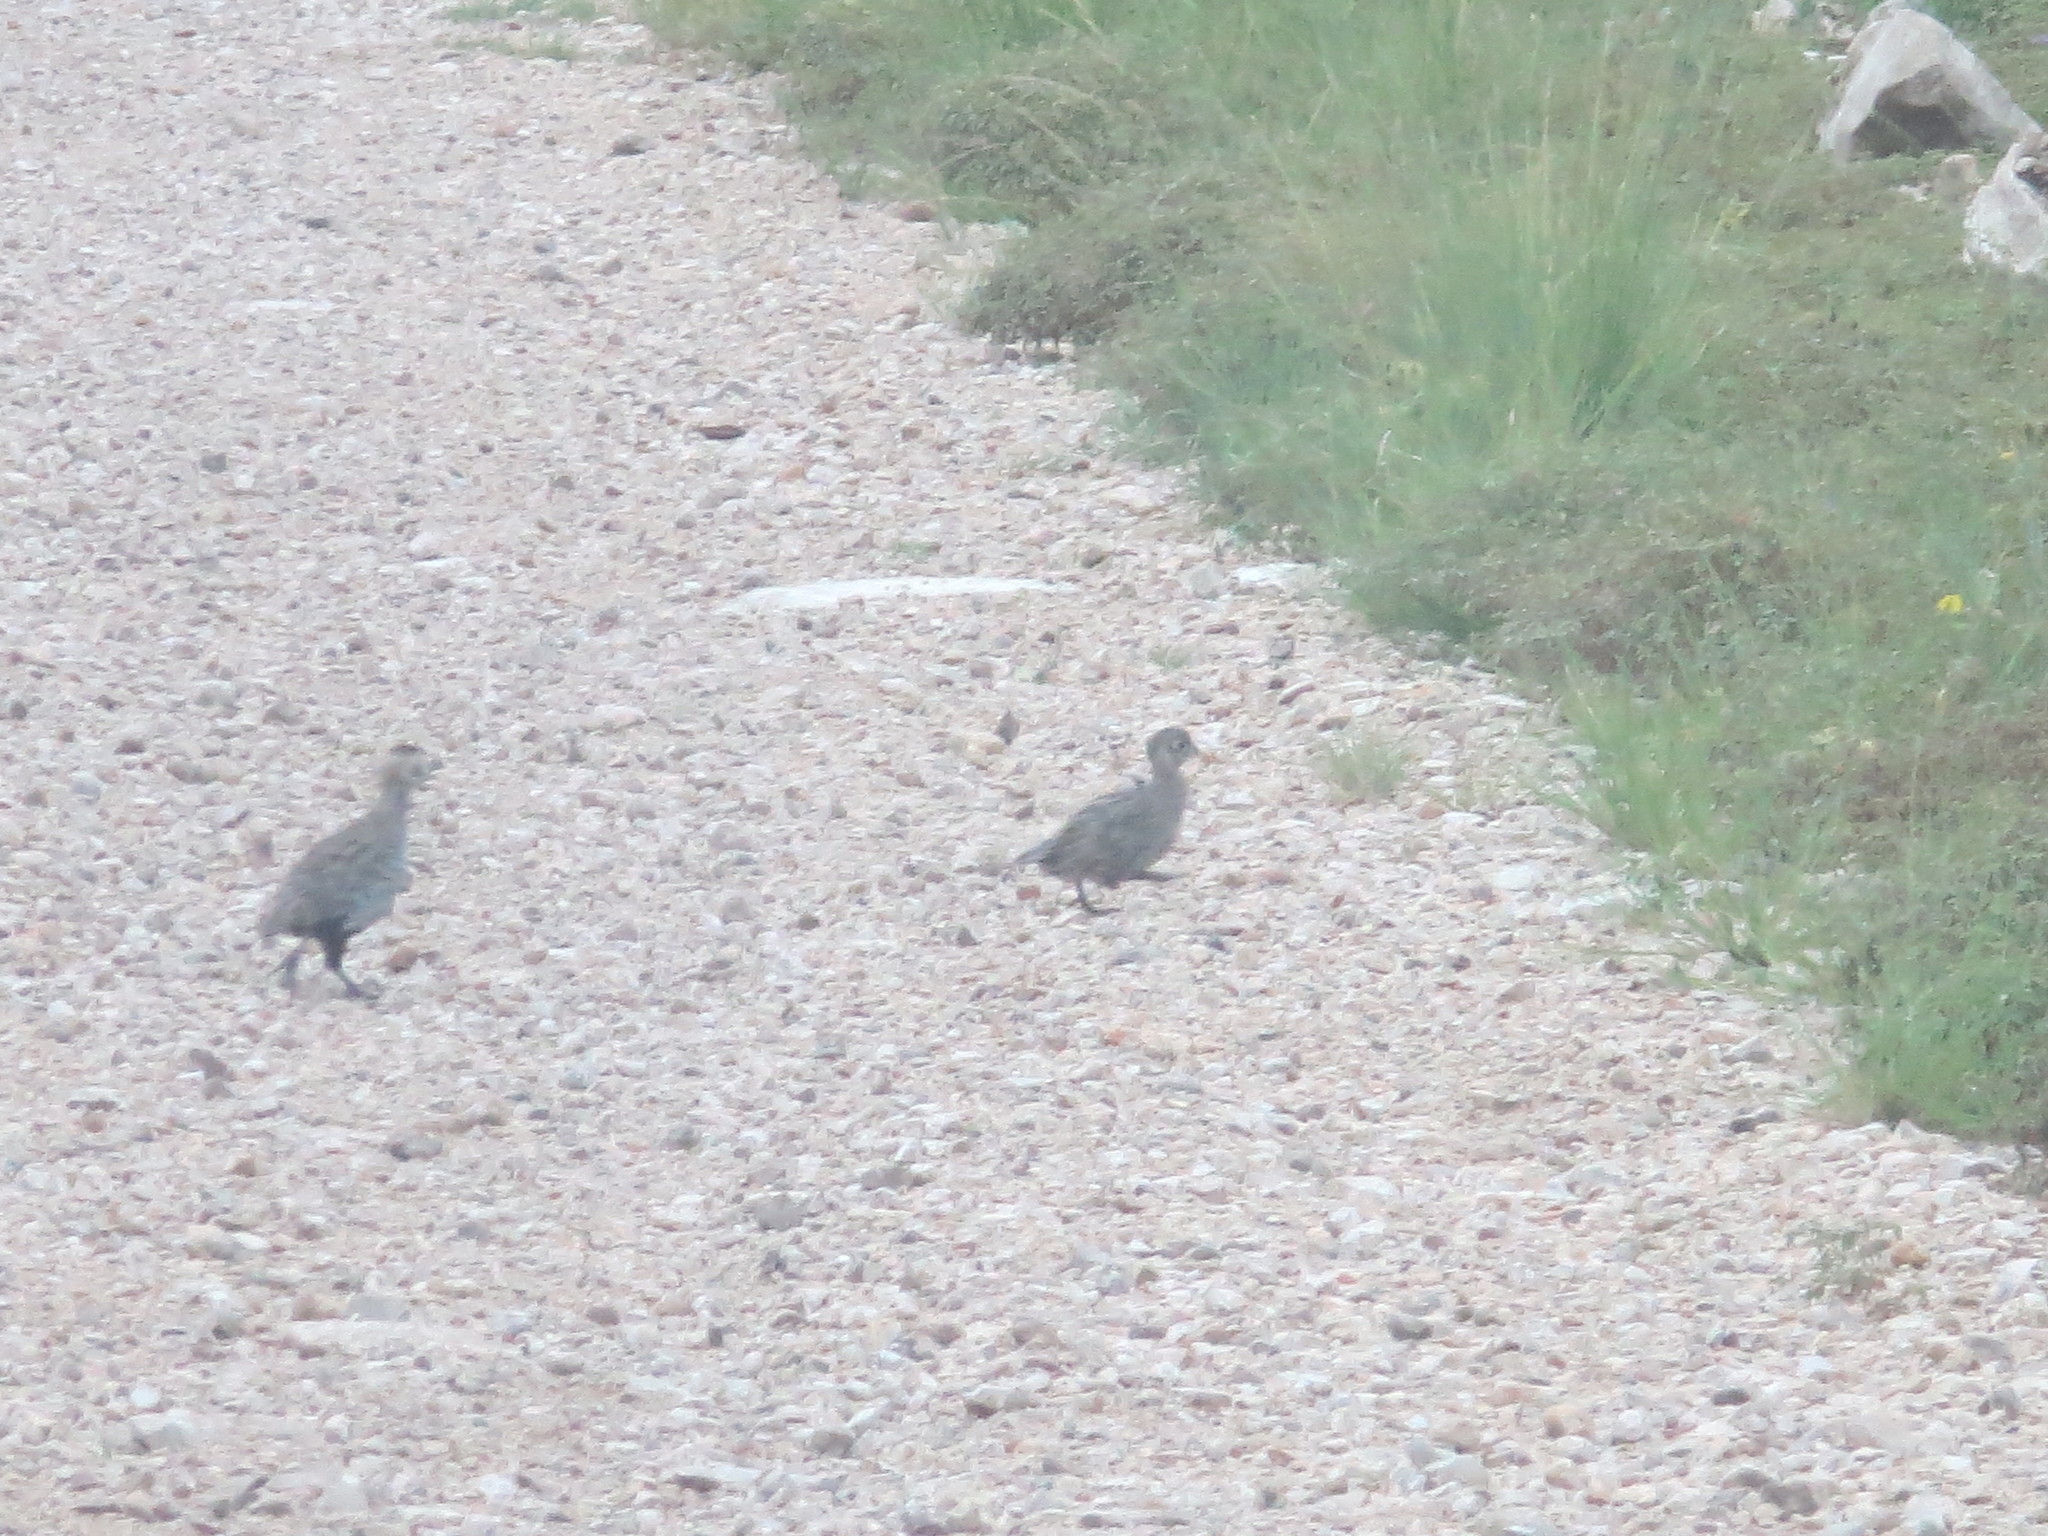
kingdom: Animalia
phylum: Chordata
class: Aves
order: Galliformes
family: Odontophoridae
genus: Cyrtonyx
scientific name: Cyrtonyx montezumae
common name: Montezuma quail
